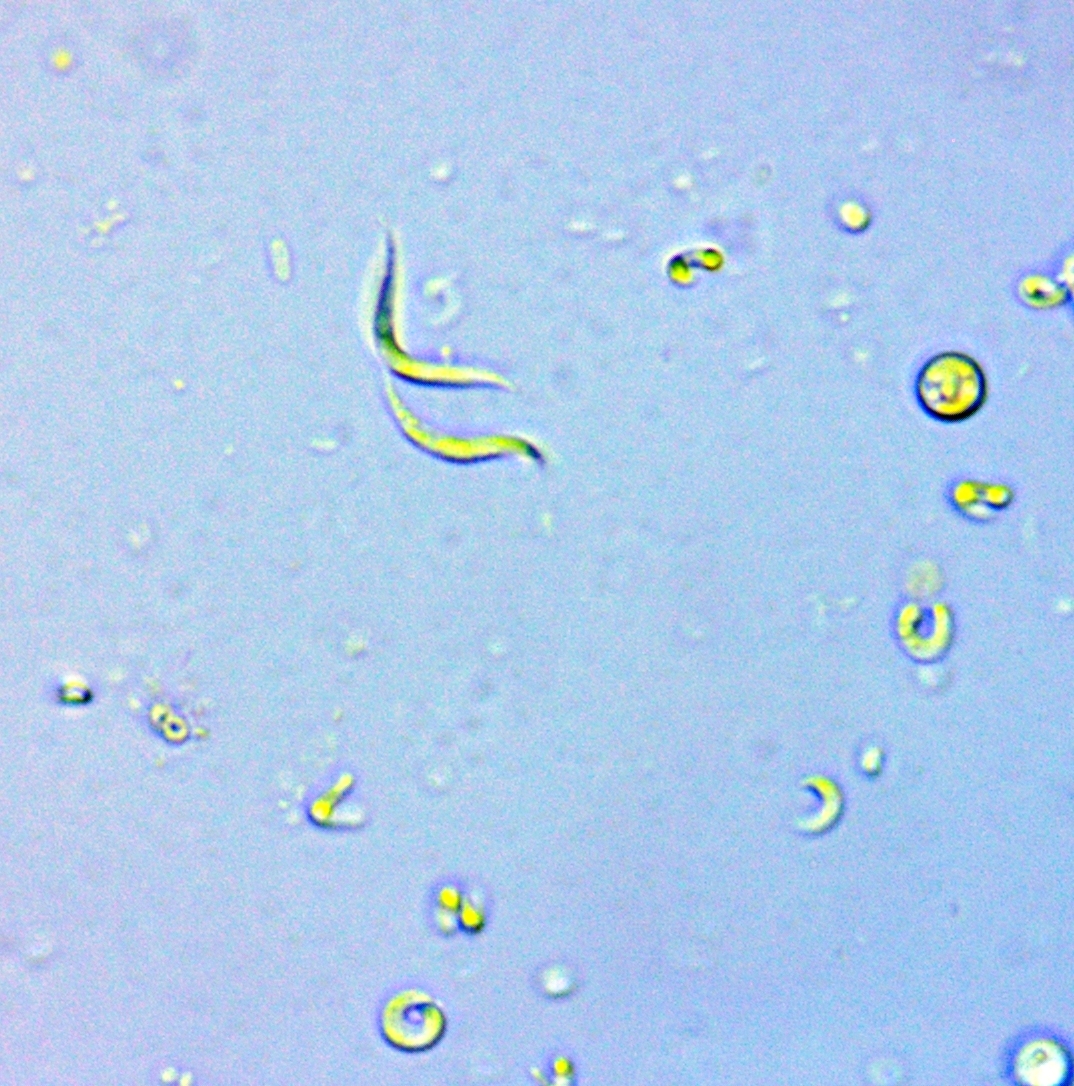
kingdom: Plantae
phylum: Chlorophyta
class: Chlorophyceae
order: Sphaeropleales
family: Selenastraceae
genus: Monoraphidium
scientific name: Monoraphidium contortum
